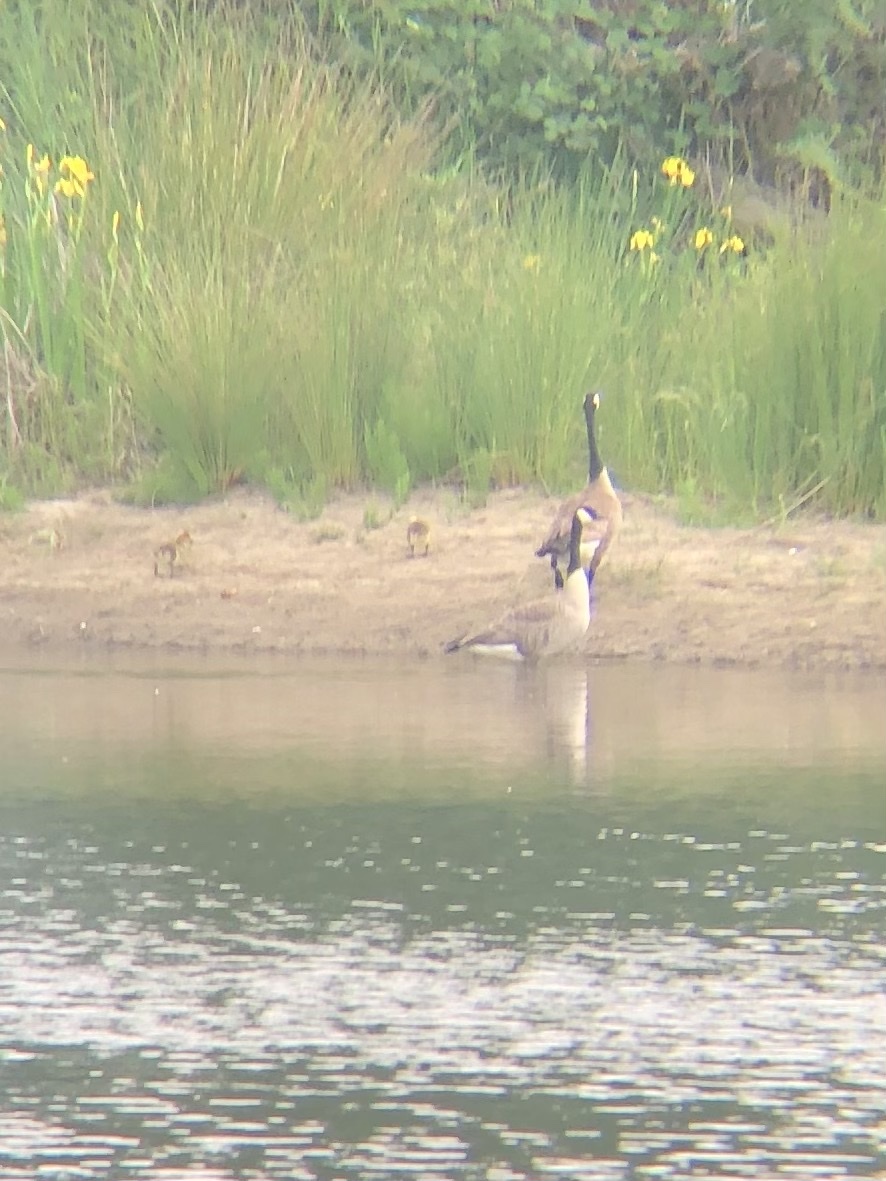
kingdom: Animalia
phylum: Chordata
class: Aves
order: Anseriformes
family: Anatidae
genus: Branta
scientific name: Branta canadensis
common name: Canada goose
